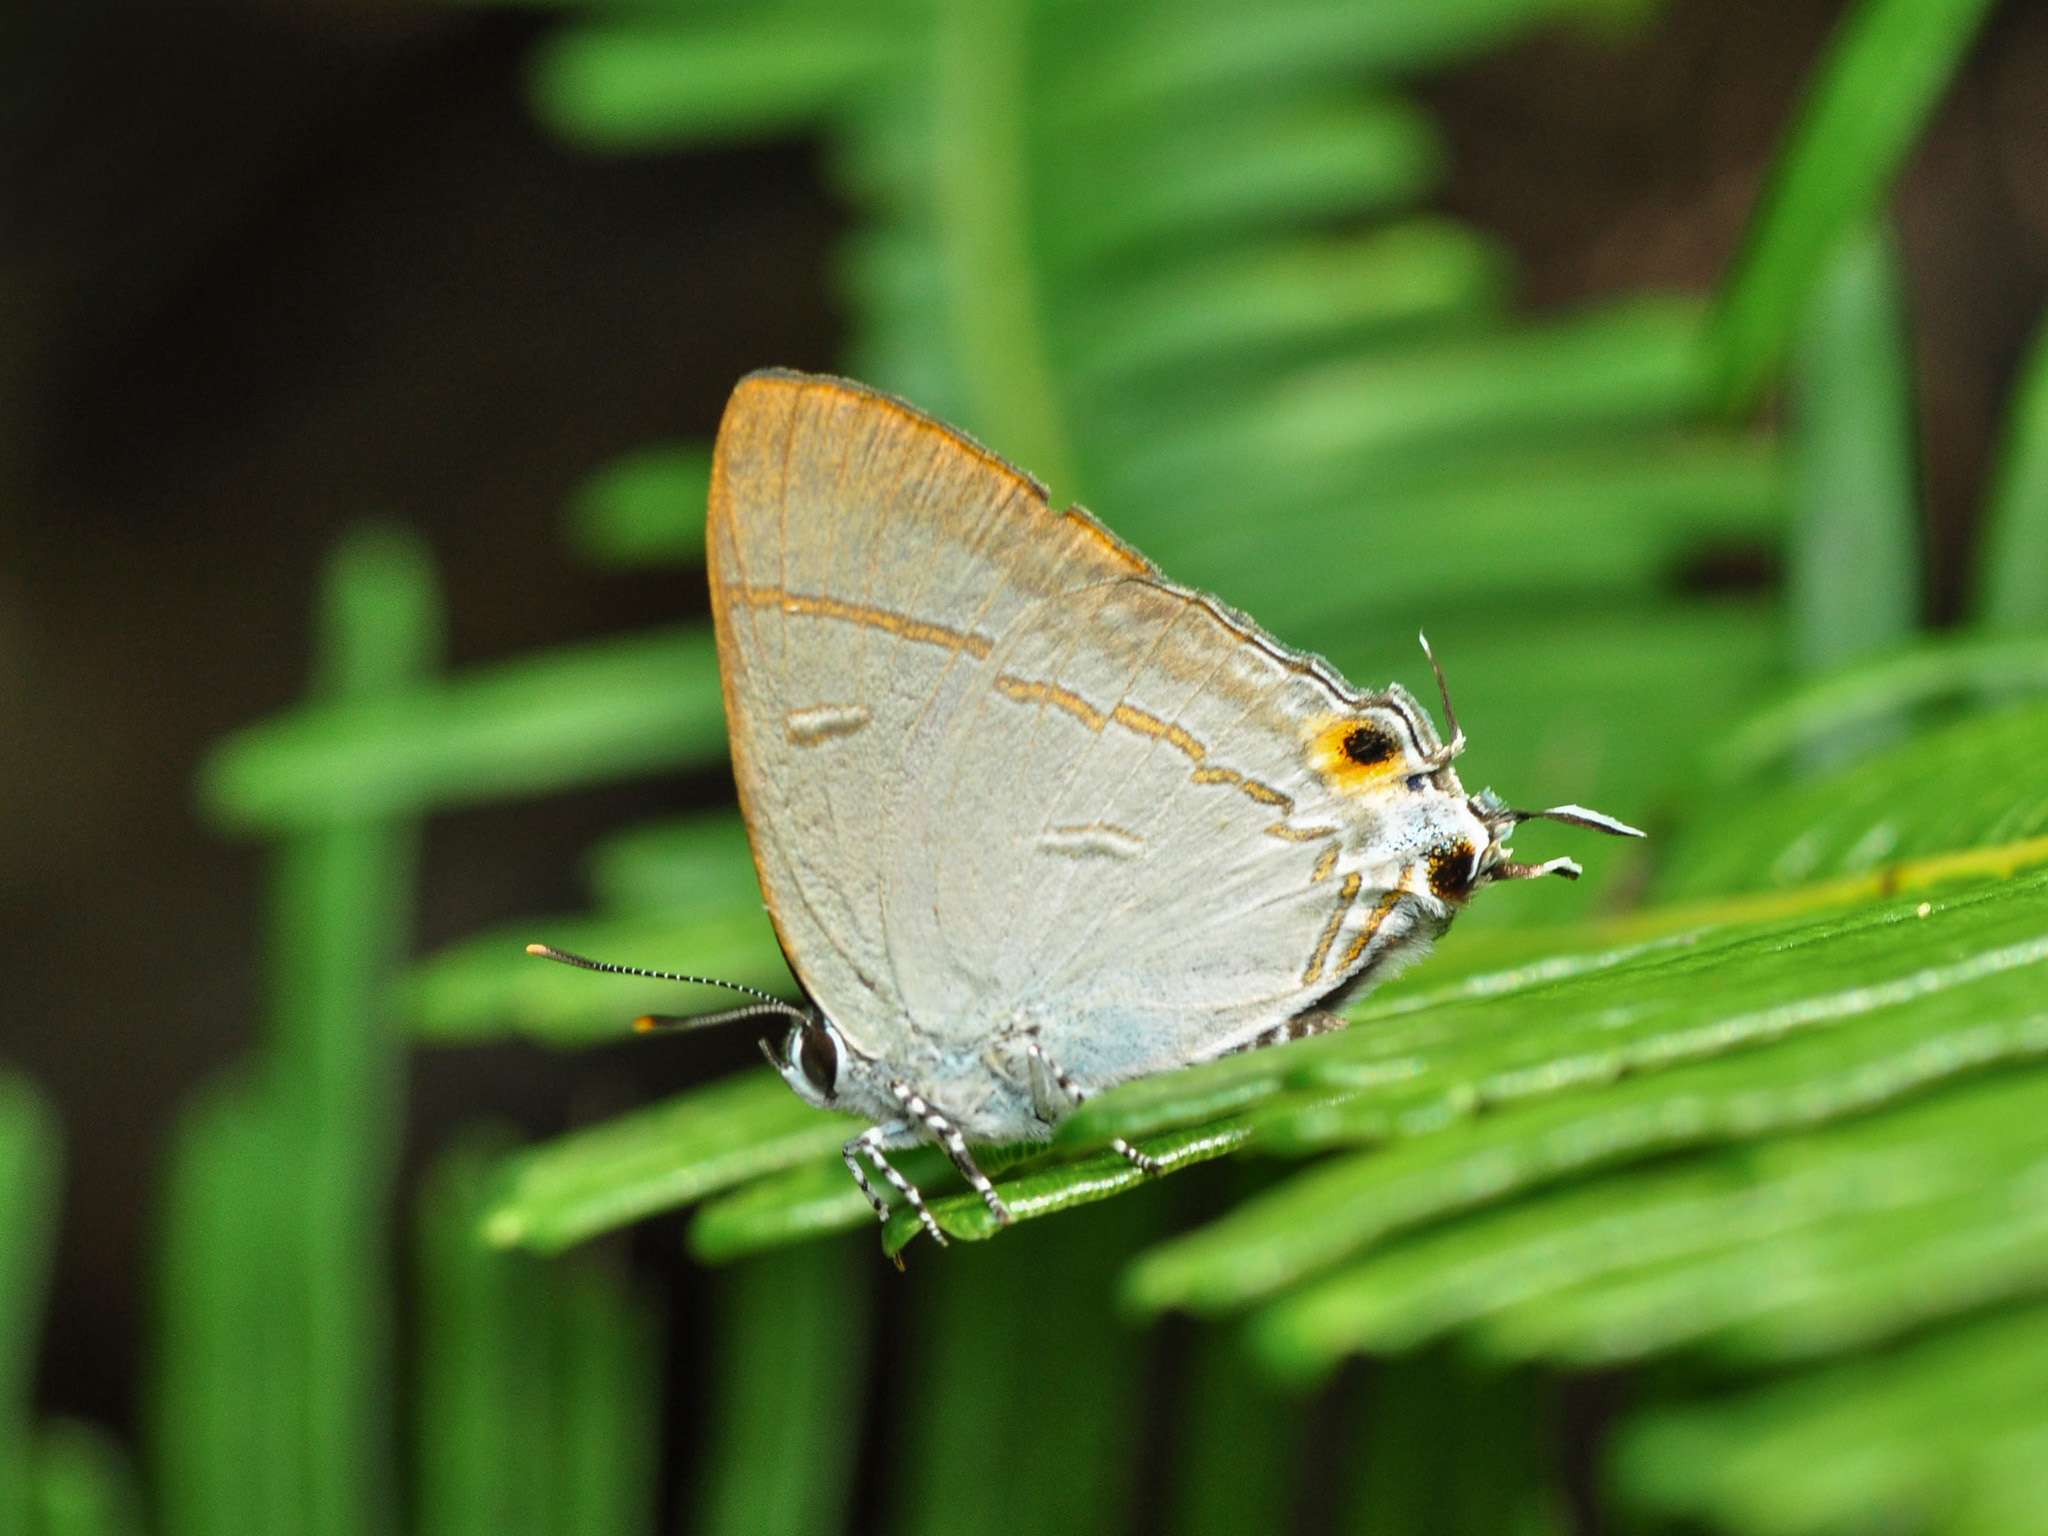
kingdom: Animalia
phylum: Arthropoda
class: Insecta
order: Lepidoptera
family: Lycaenidae
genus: Hypolycaena
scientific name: Hypolycaena erylus
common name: Common tit
